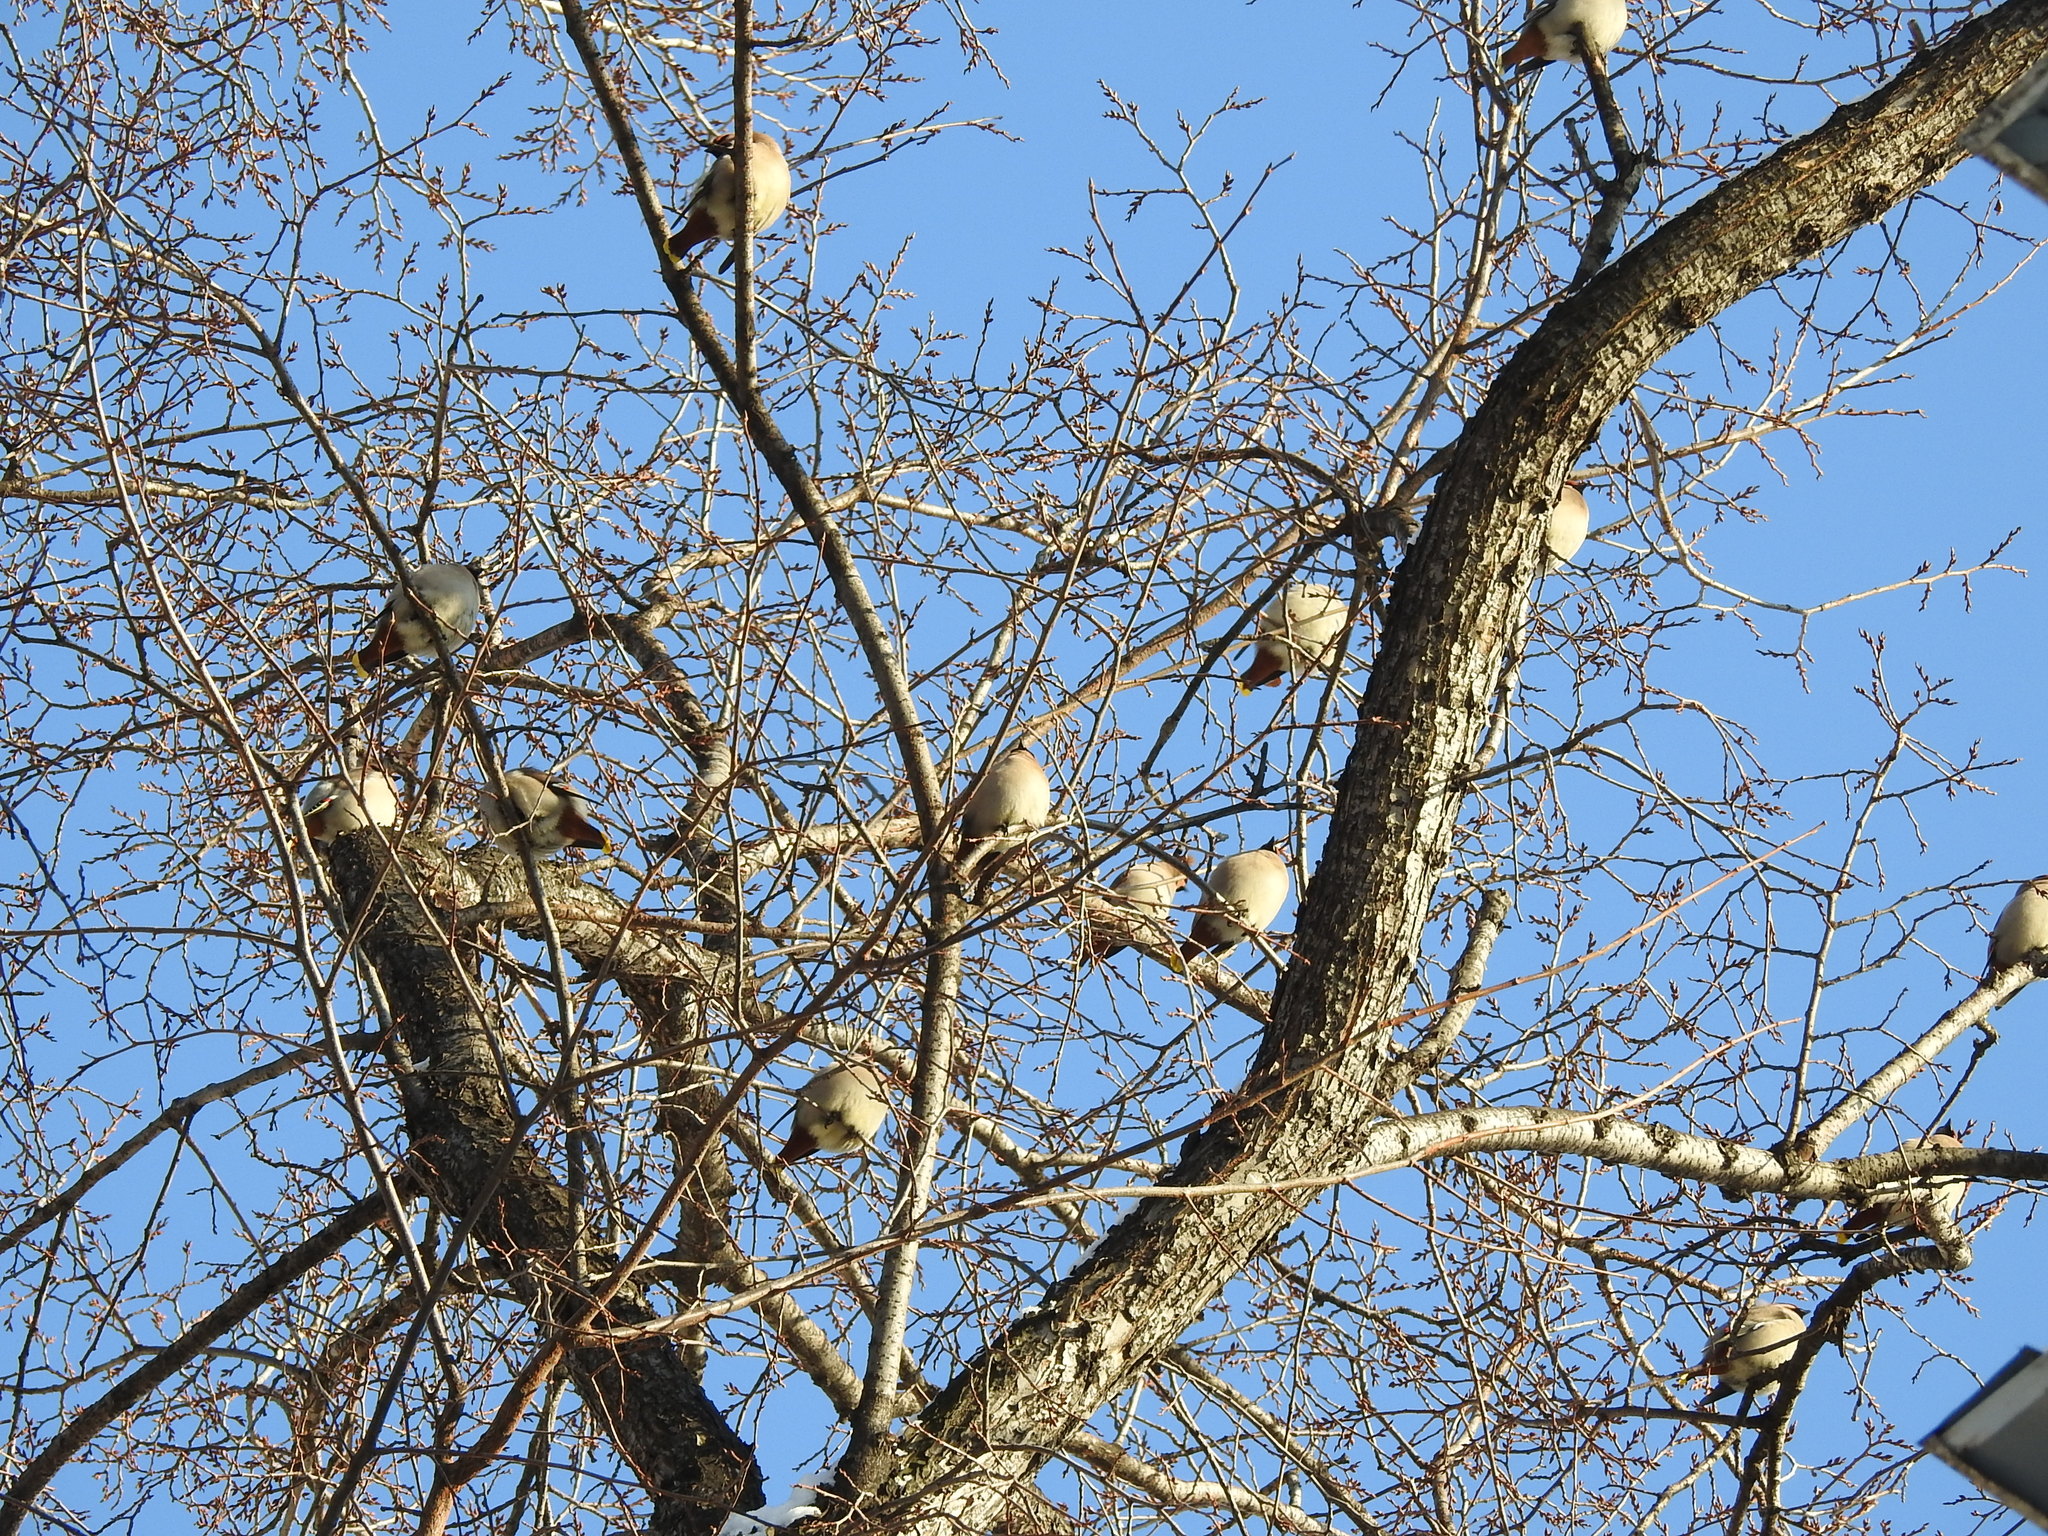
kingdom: Animalia
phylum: Chordata
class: Aves
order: Passeriformes
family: Bombycillidae
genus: Bombycilla
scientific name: Bombycilla garrulus
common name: Bohemian waxwing
